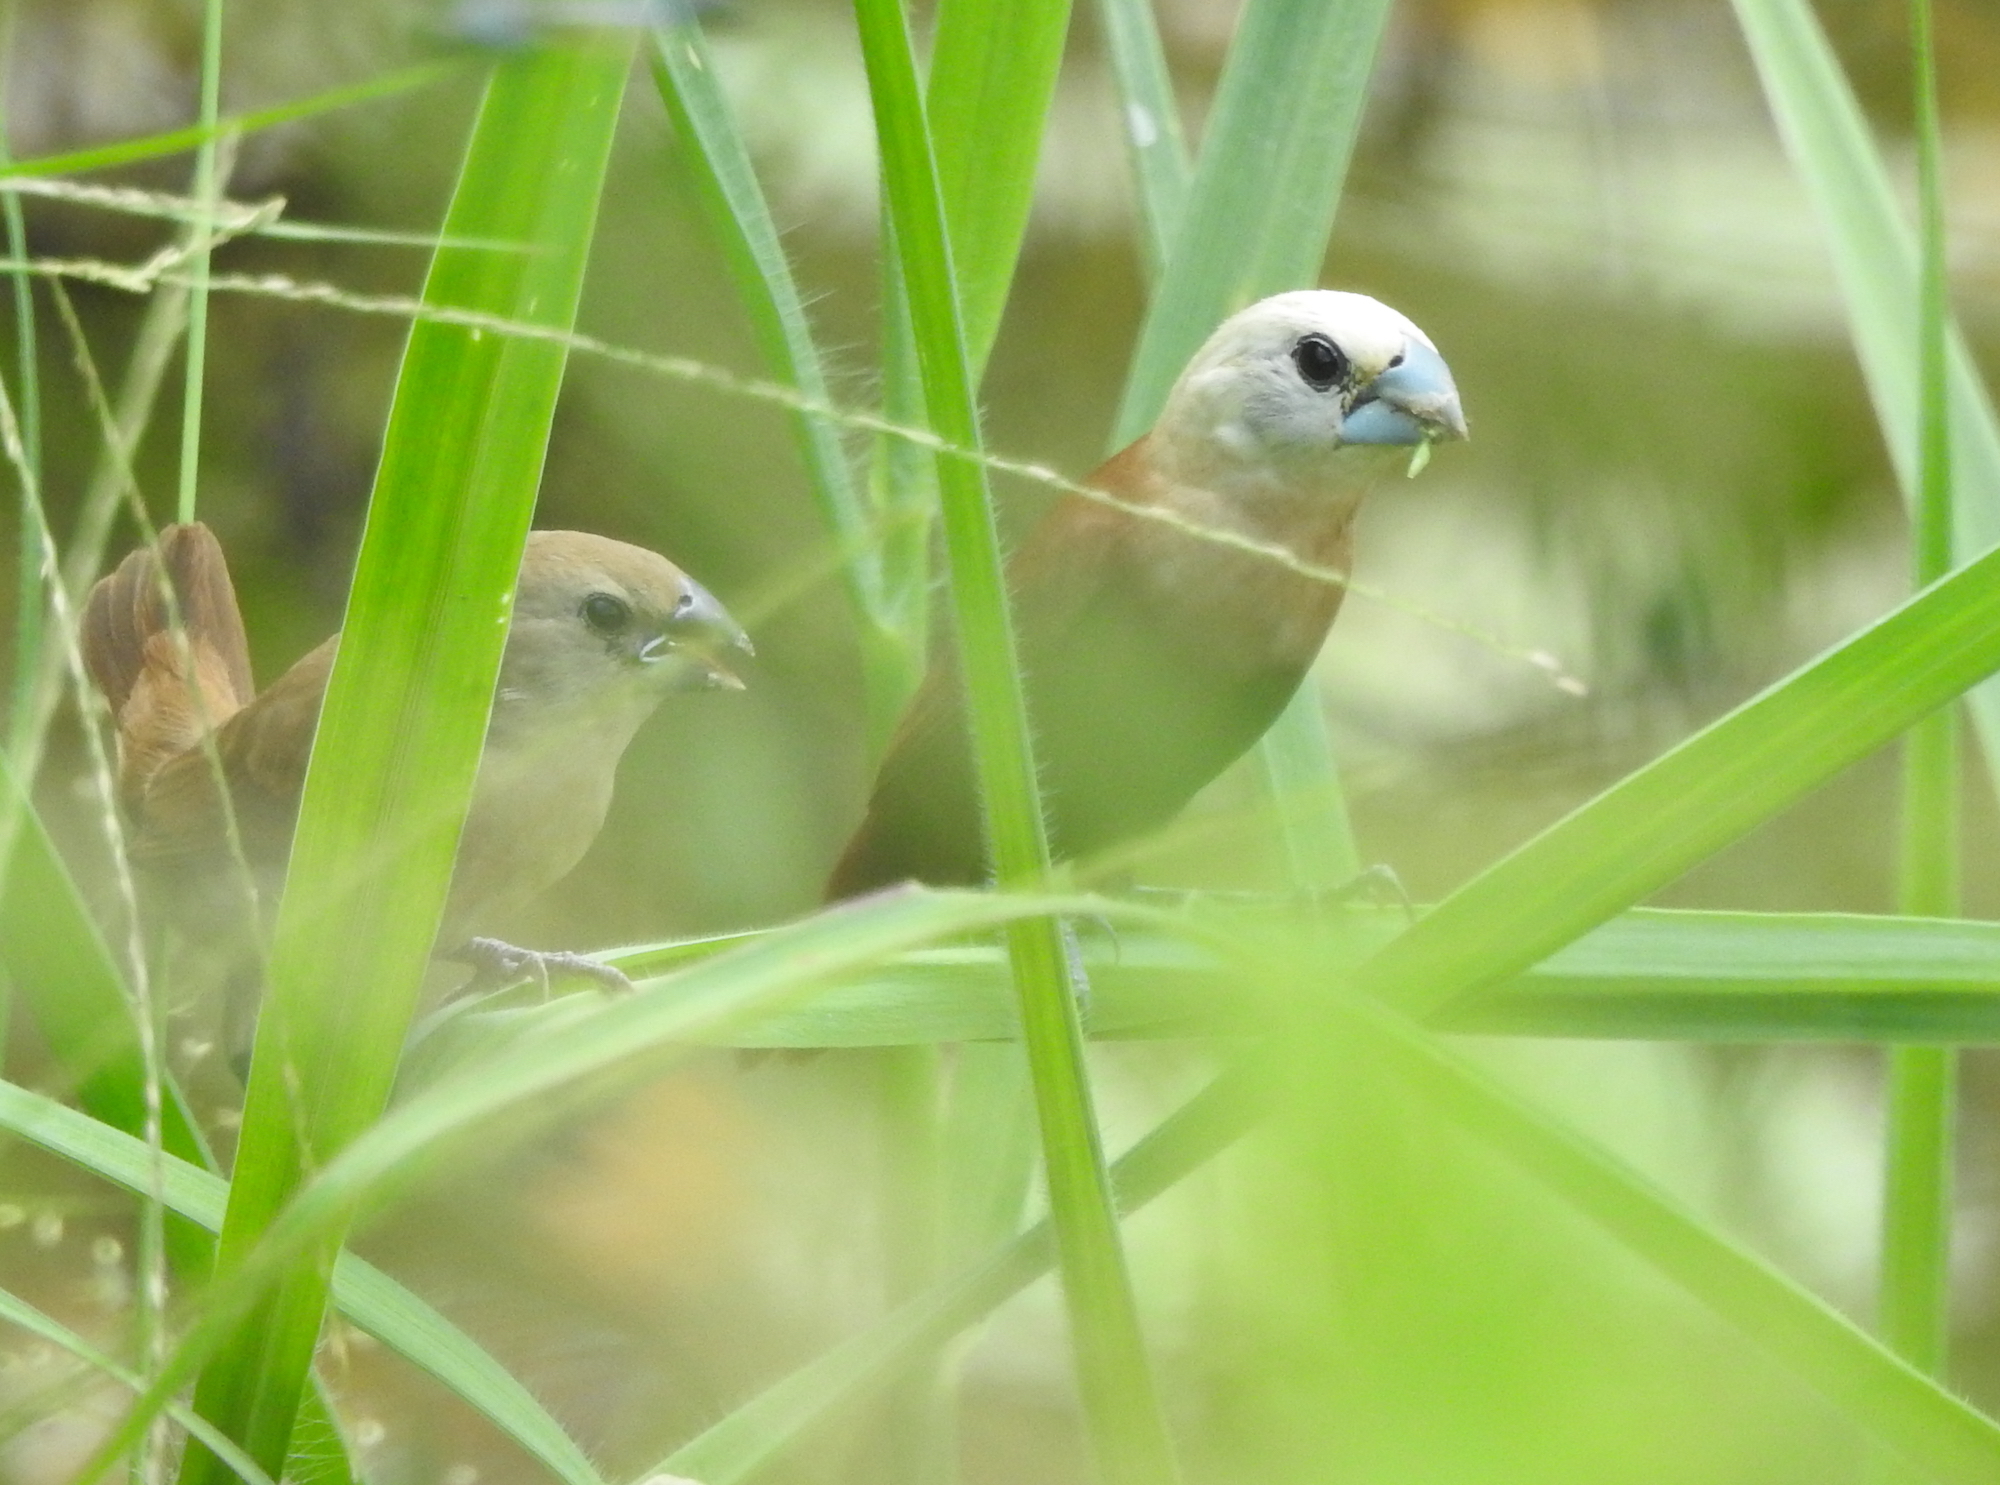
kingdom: Animalia
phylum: Chordata
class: Aves
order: Passeriformes
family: Estrildidae
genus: Lonchura
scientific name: Lonchura maja
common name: White-headed munia
